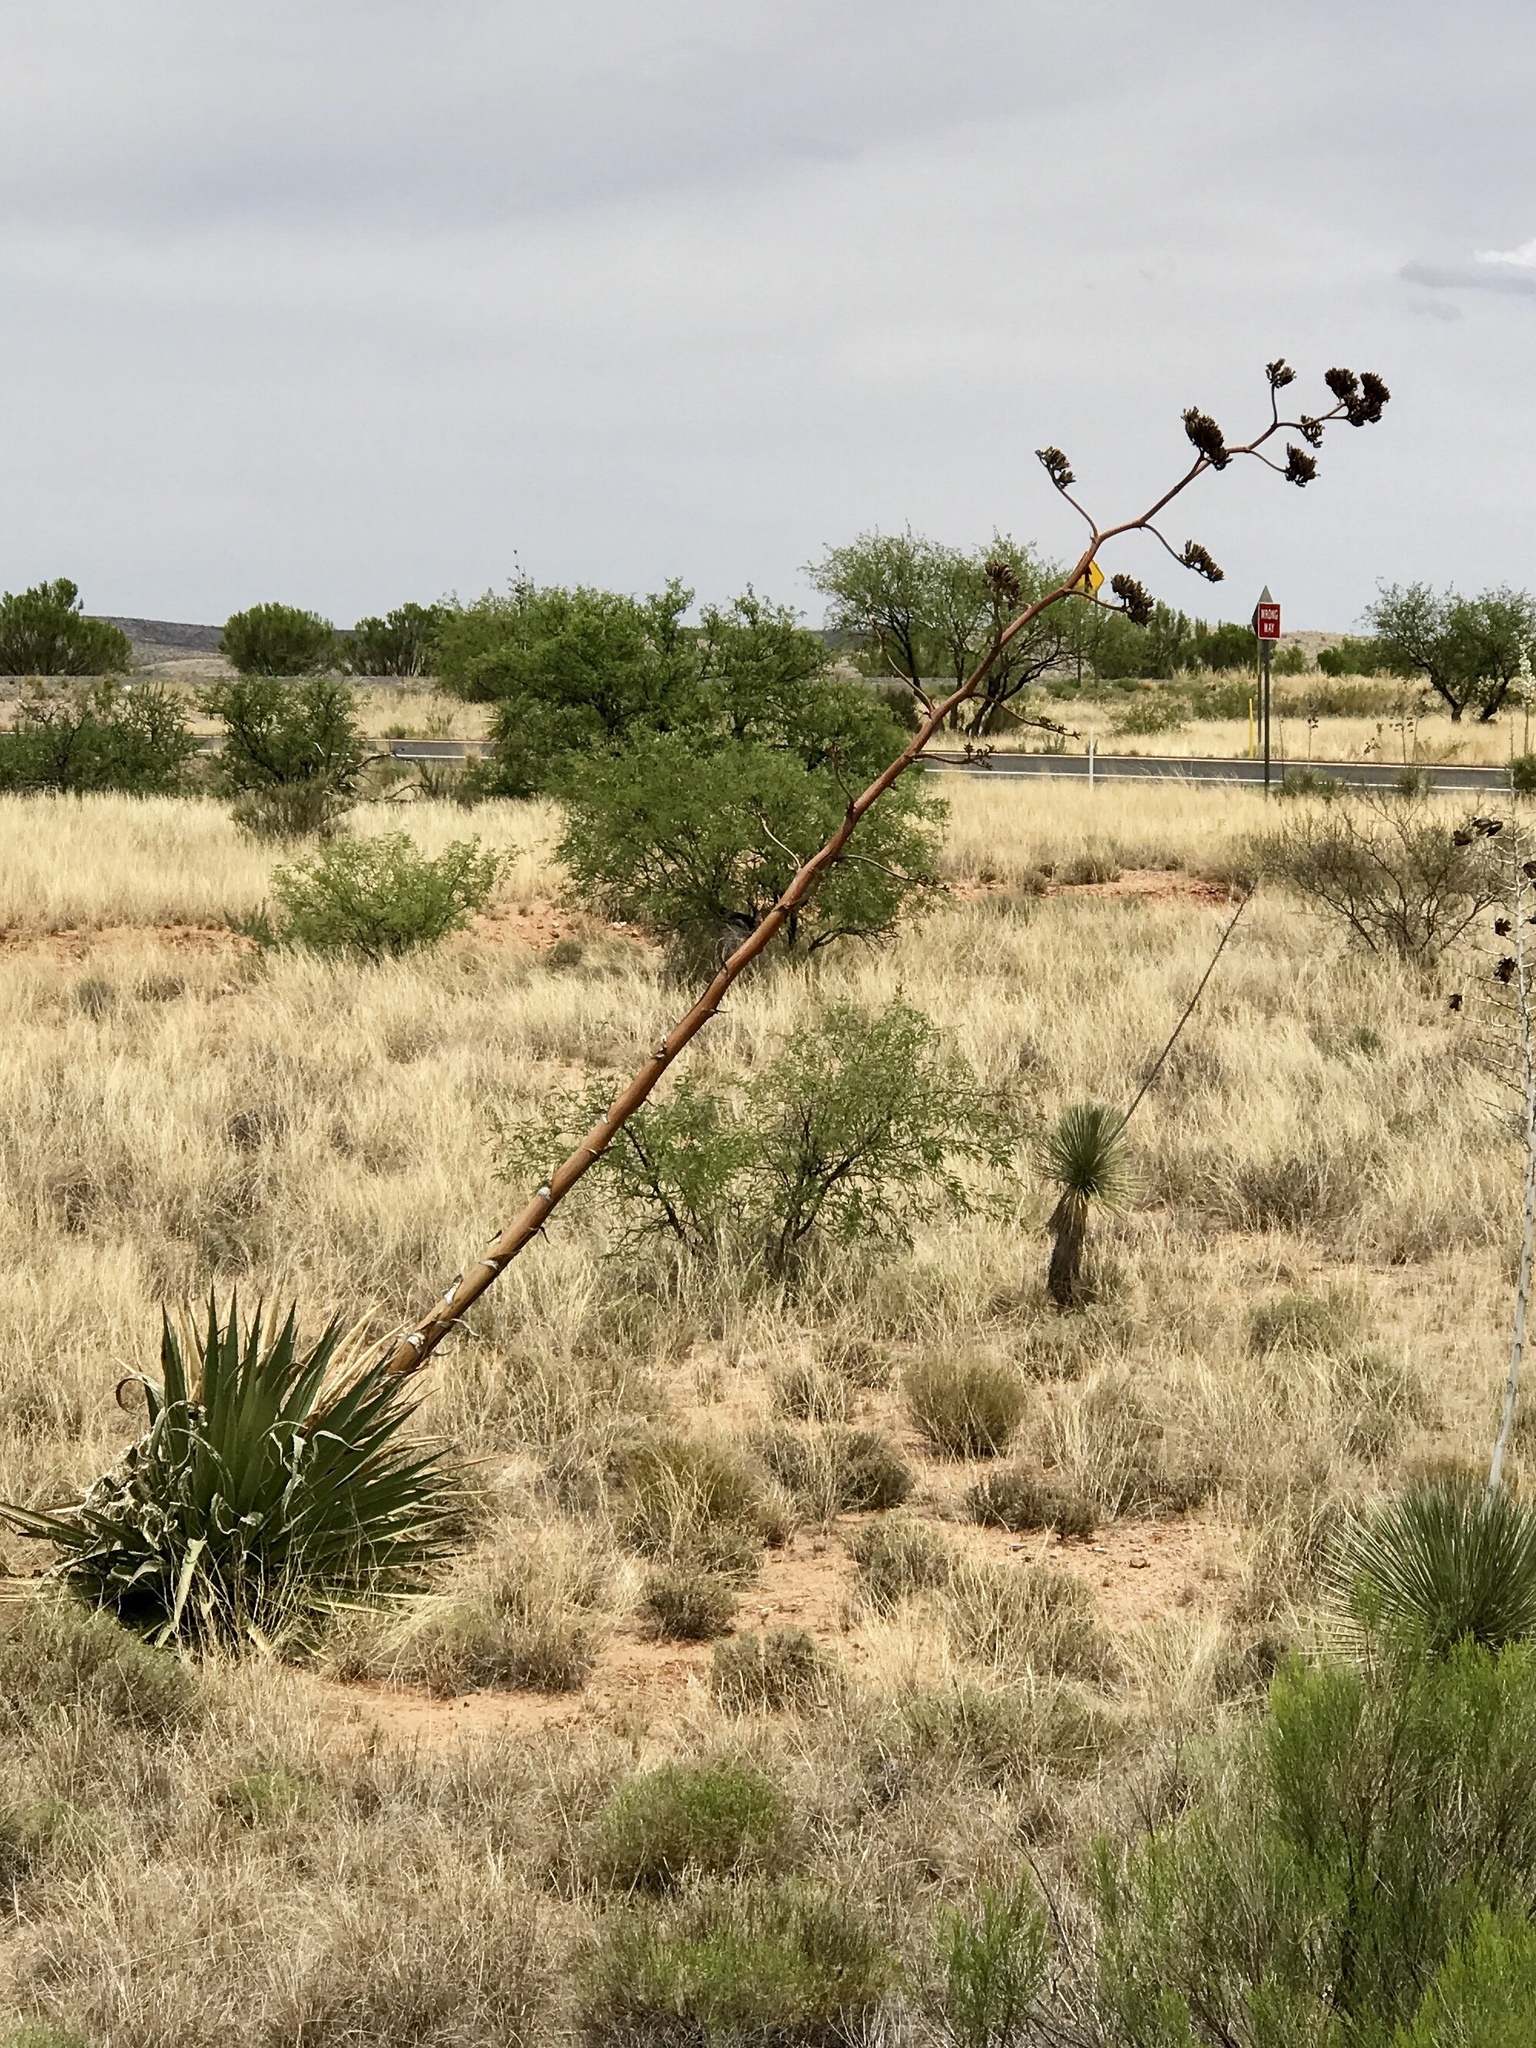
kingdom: Plantae
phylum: Tracheophyta
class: Liliopsida
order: Asparagales
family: Asparagaceae
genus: Agave
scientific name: Agave palmeri
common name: Palmer agave
